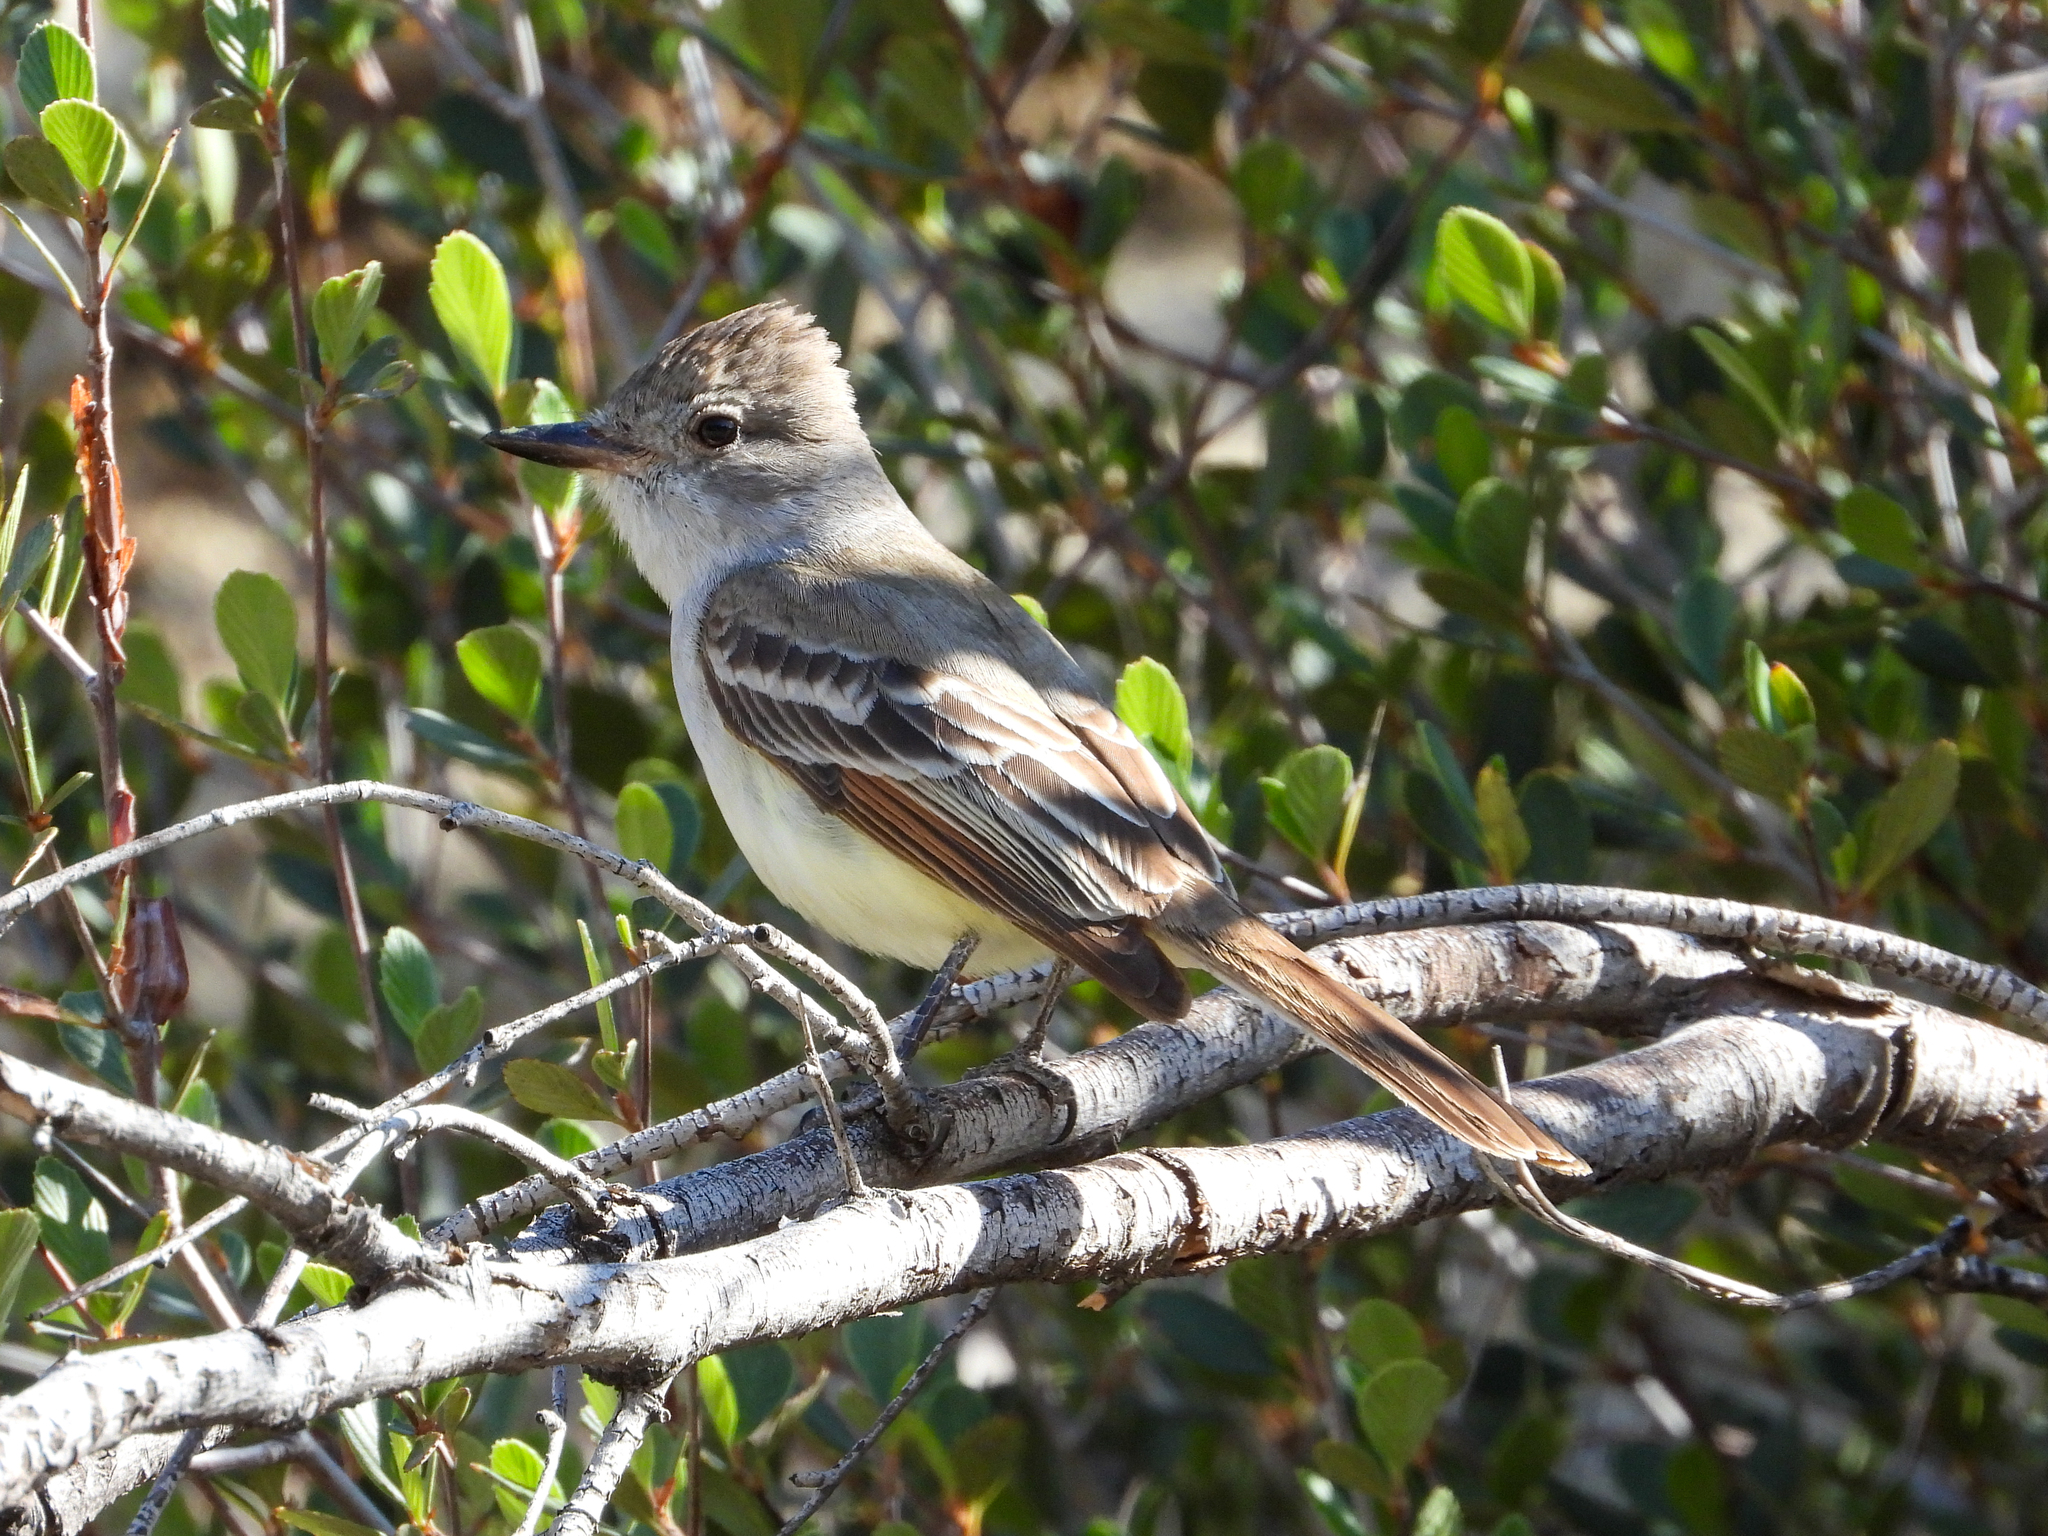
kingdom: Animalia
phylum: Chordata
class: Aves
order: Passeriformes
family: Tyrannidae
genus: Myiarchus
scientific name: Myiarchus cinerascens
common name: Ash-throated flycatcher
